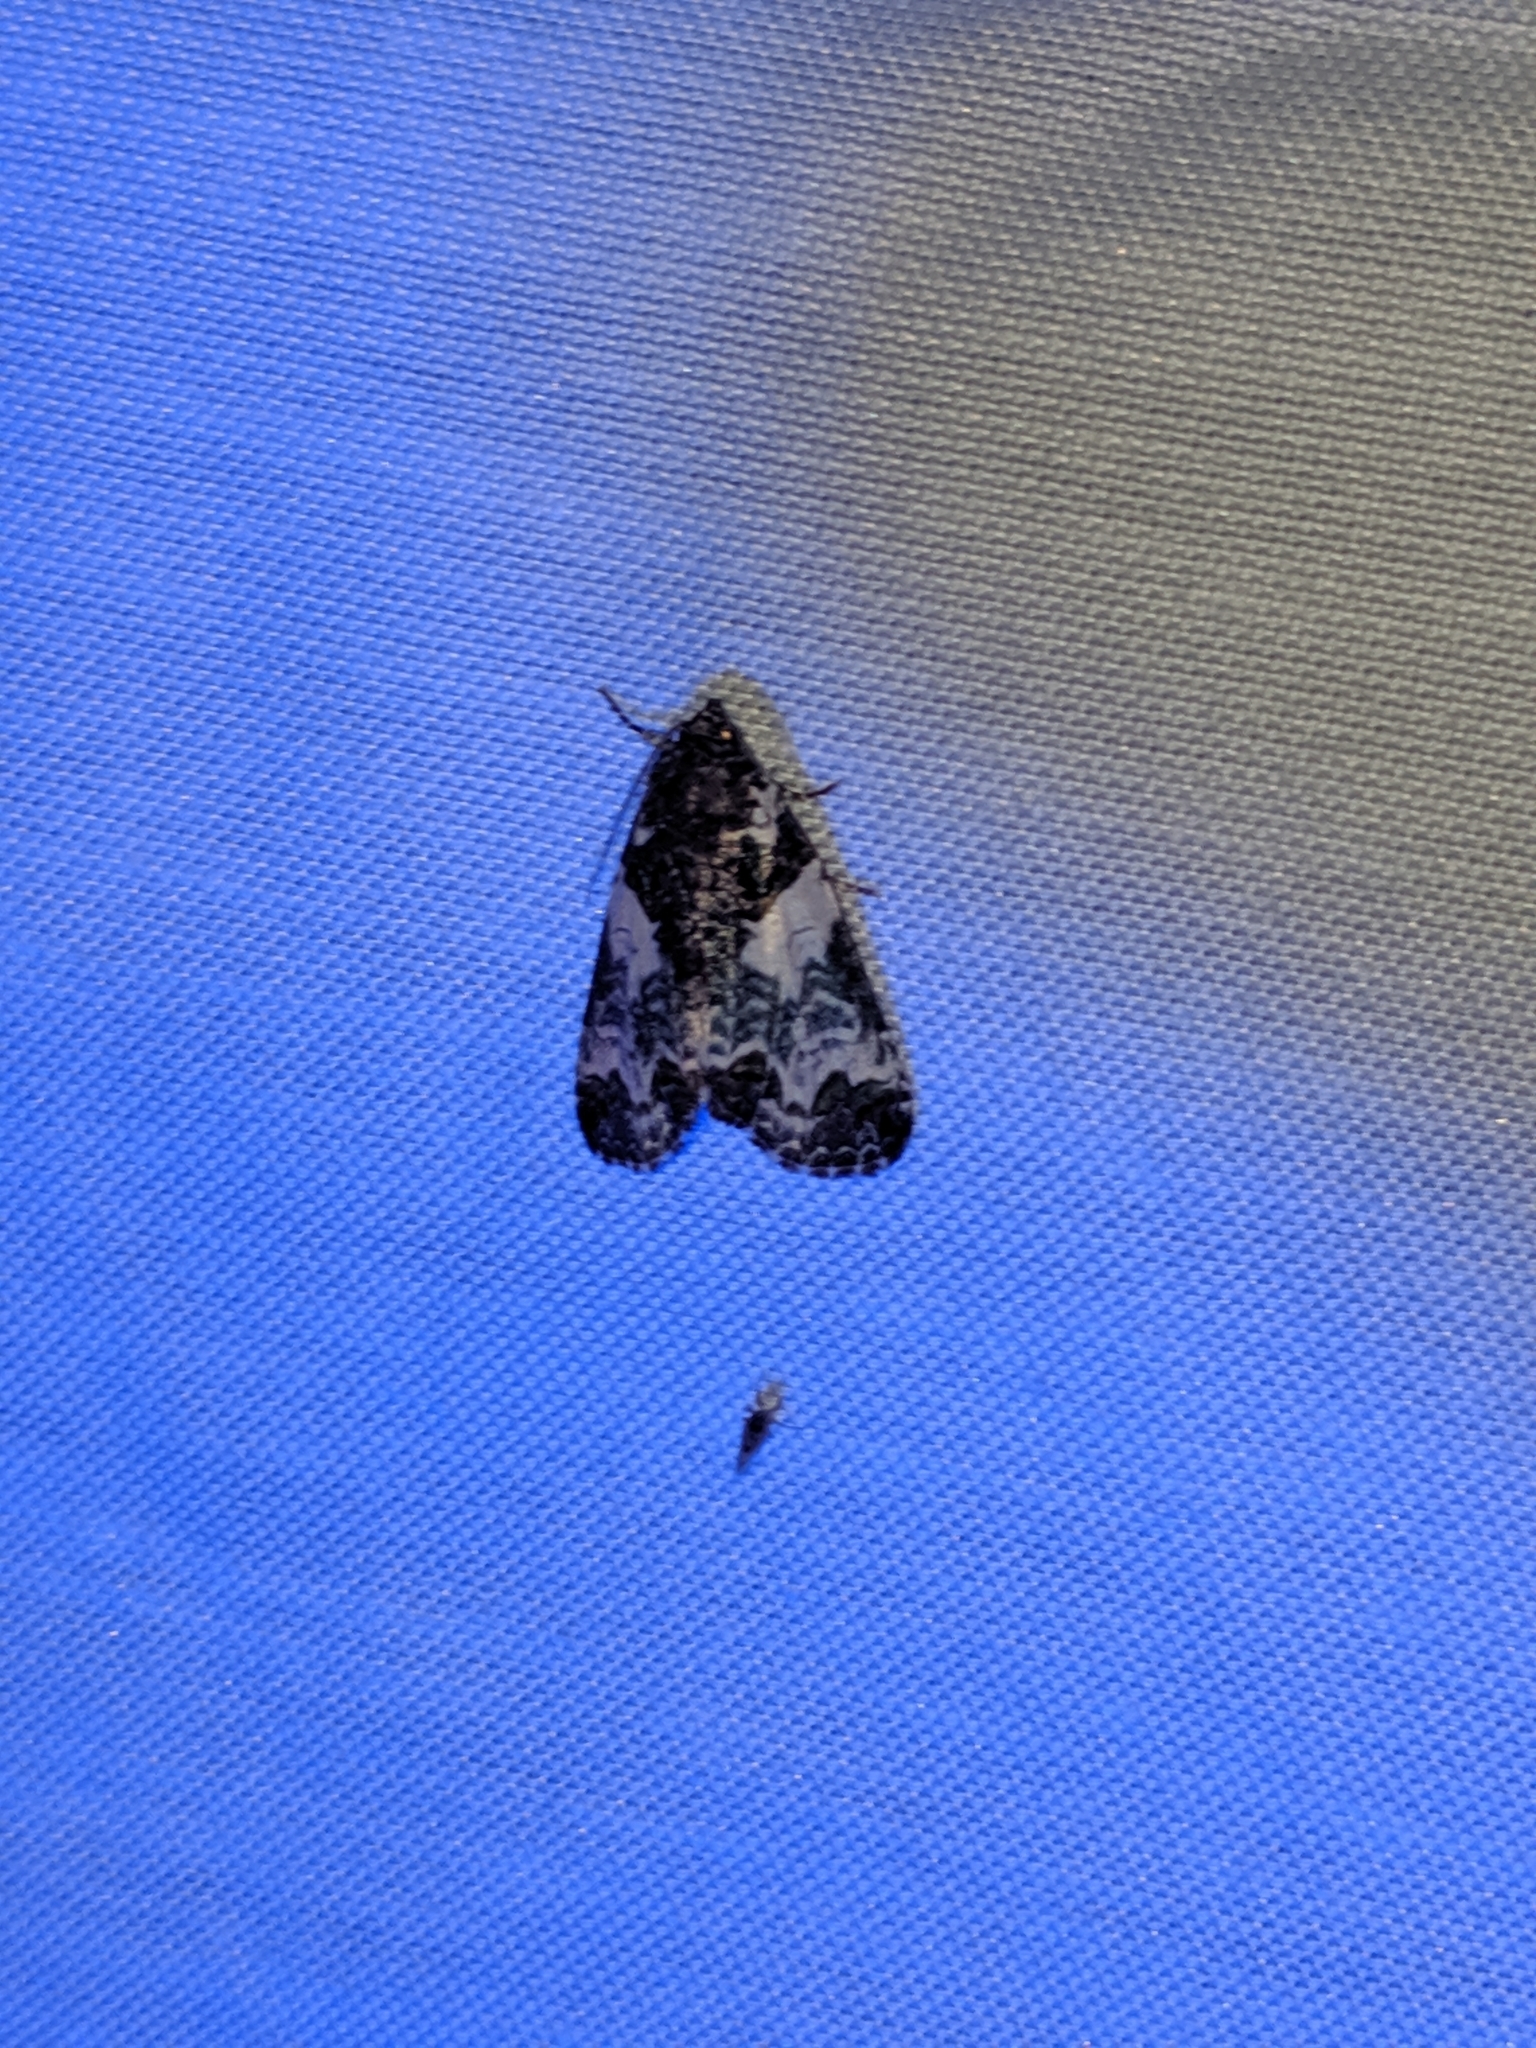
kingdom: Animalia
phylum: Arthropoda
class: Insecta
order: Lepidoptera
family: Noctuidae
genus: Cerma
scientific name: Cerma cerintha
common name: Tufted bird-dropping moth
